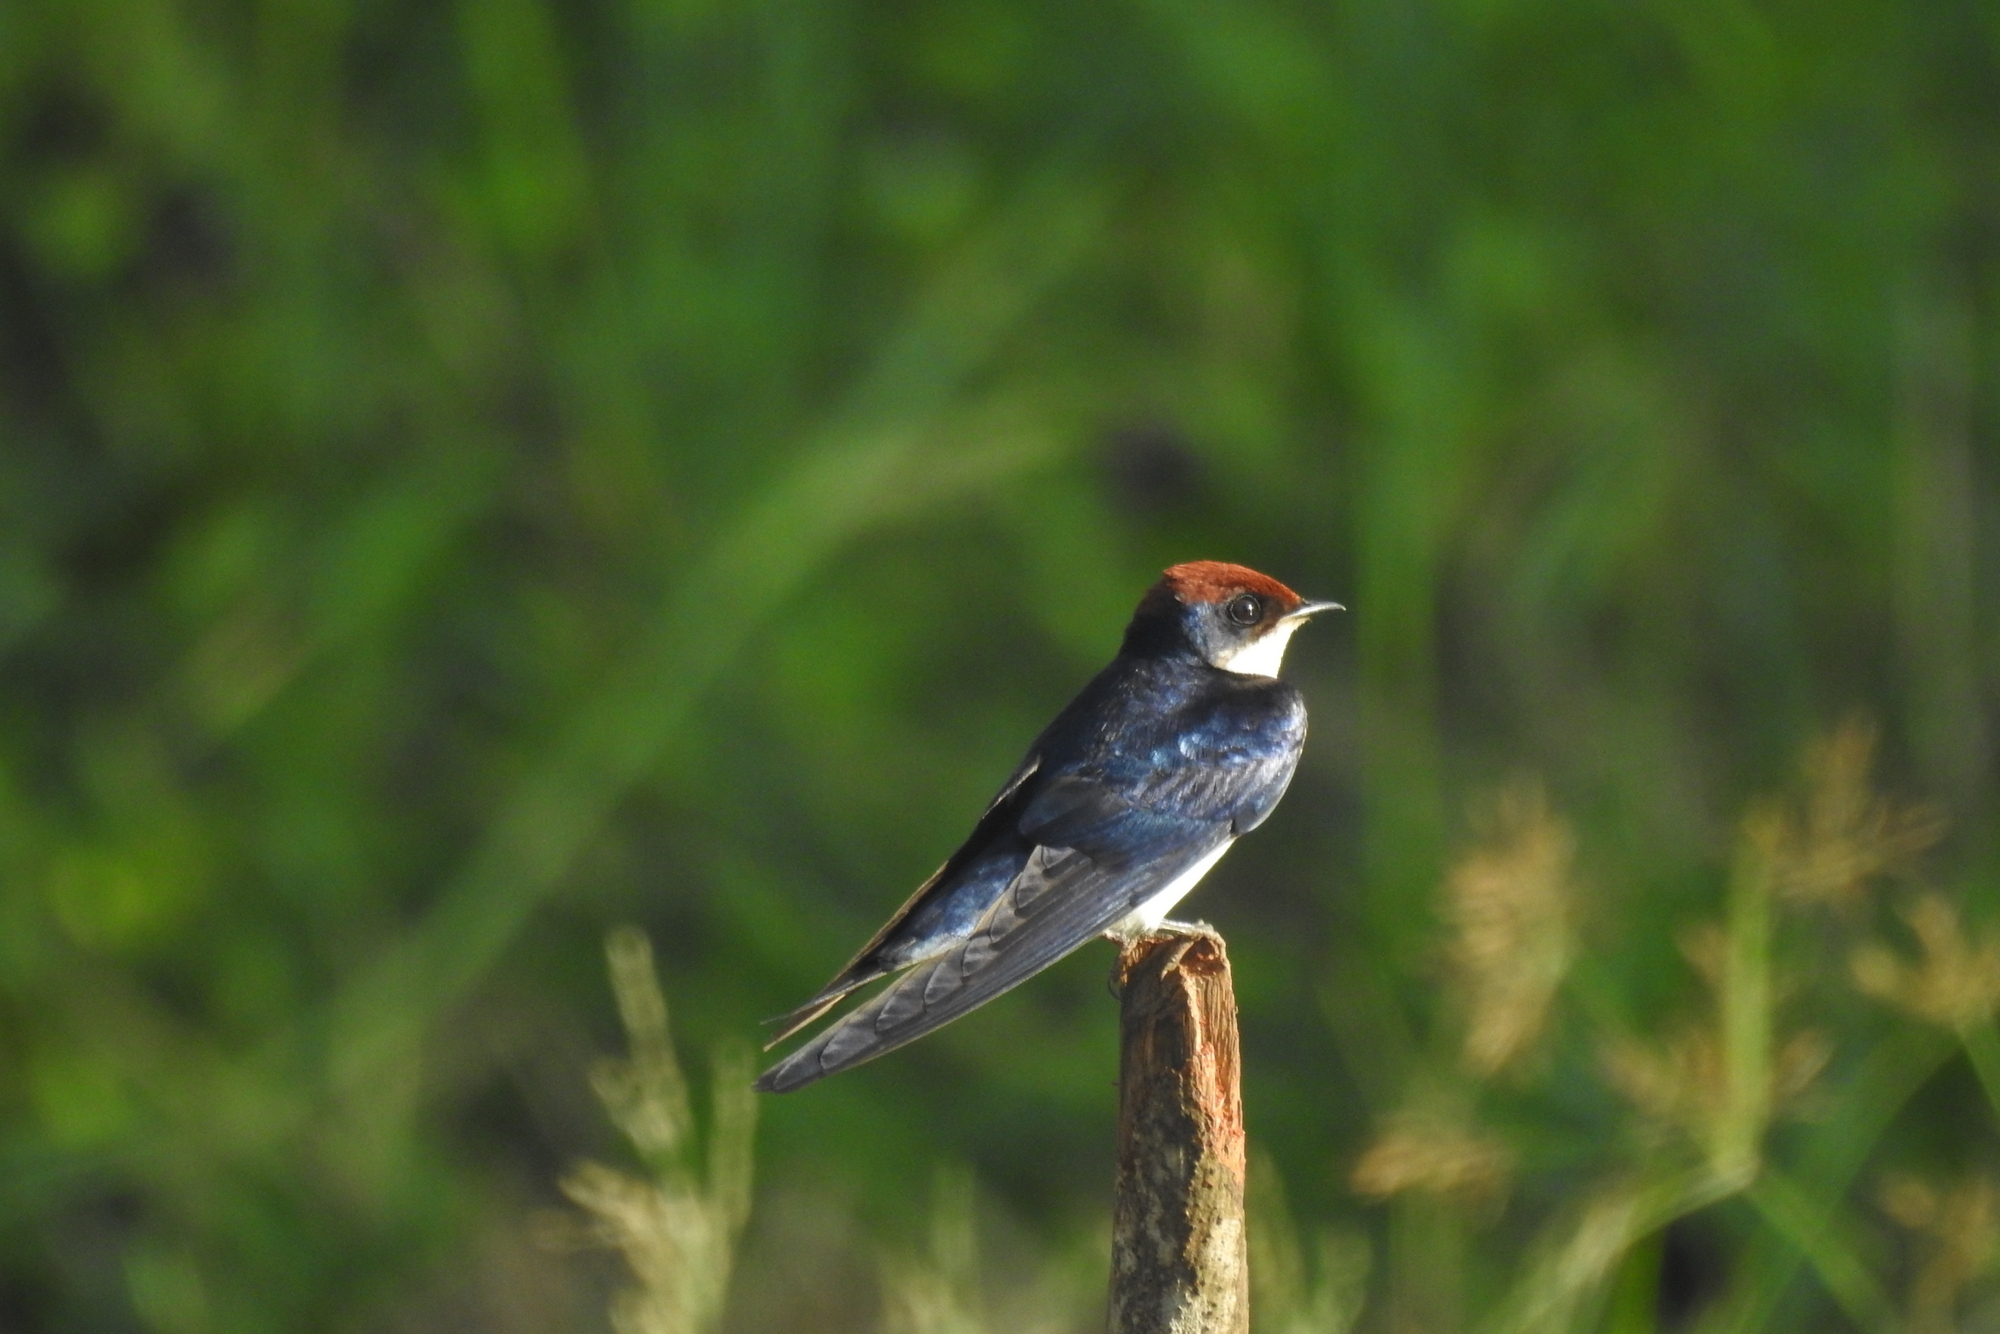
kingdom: Animalia
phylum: Chordata
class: Aves
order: Passeriformes
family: Hirundinidae
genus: Hirundo
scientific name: Hirundo smithii
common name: Wire-tailed swallow
